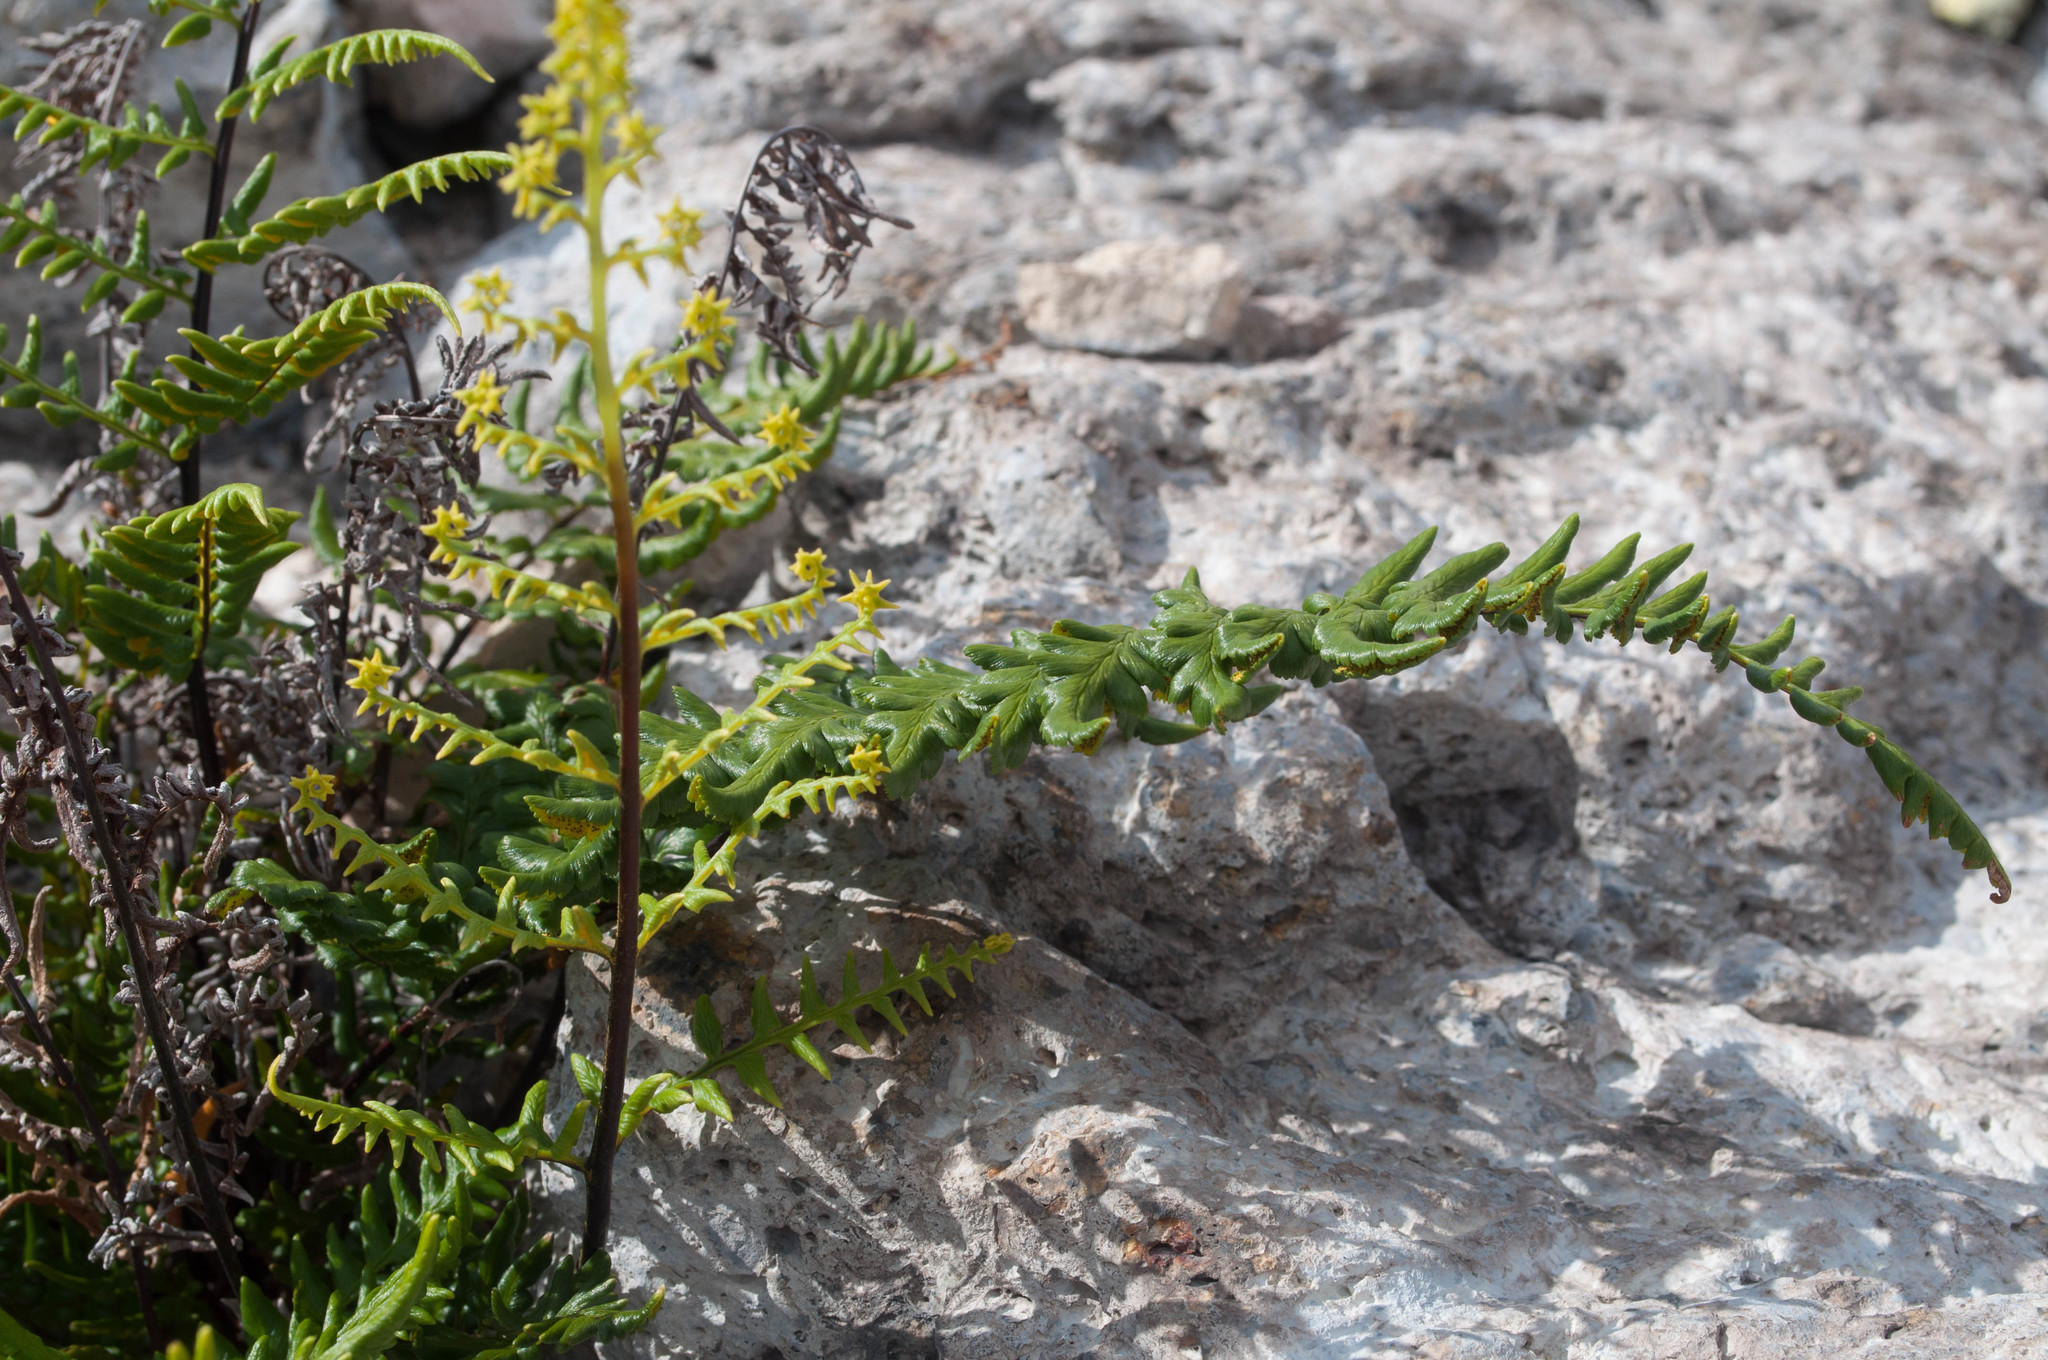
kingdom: Plantae
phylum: Tracheophyta
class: Polypodiopsida
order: Polypodiales
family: Dennstaedtiaceae
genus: Pteridium
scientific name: Pteridium aquilinum
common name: Bracken
